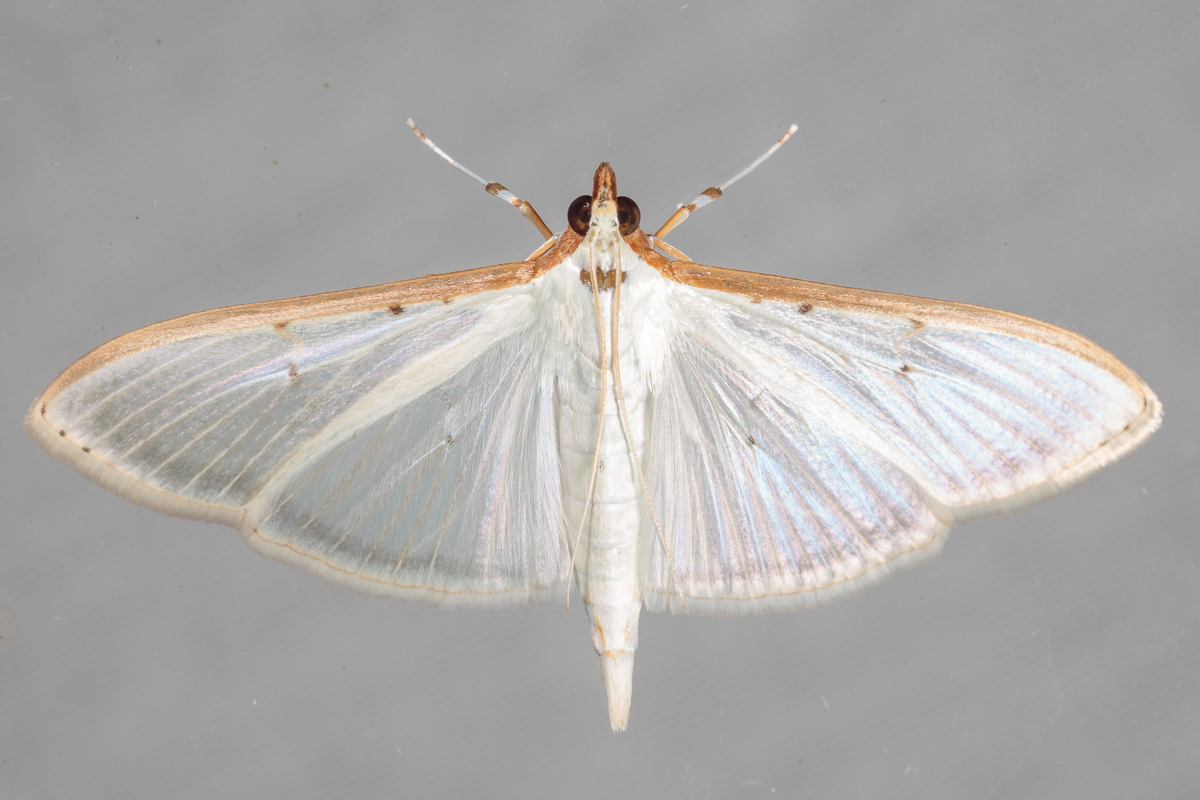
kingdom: Animalia
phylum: Arthropoda
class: Insecta
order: Lepidoptera
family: Crambidae
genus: Palpita
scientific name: Palpita quadristigmalis
